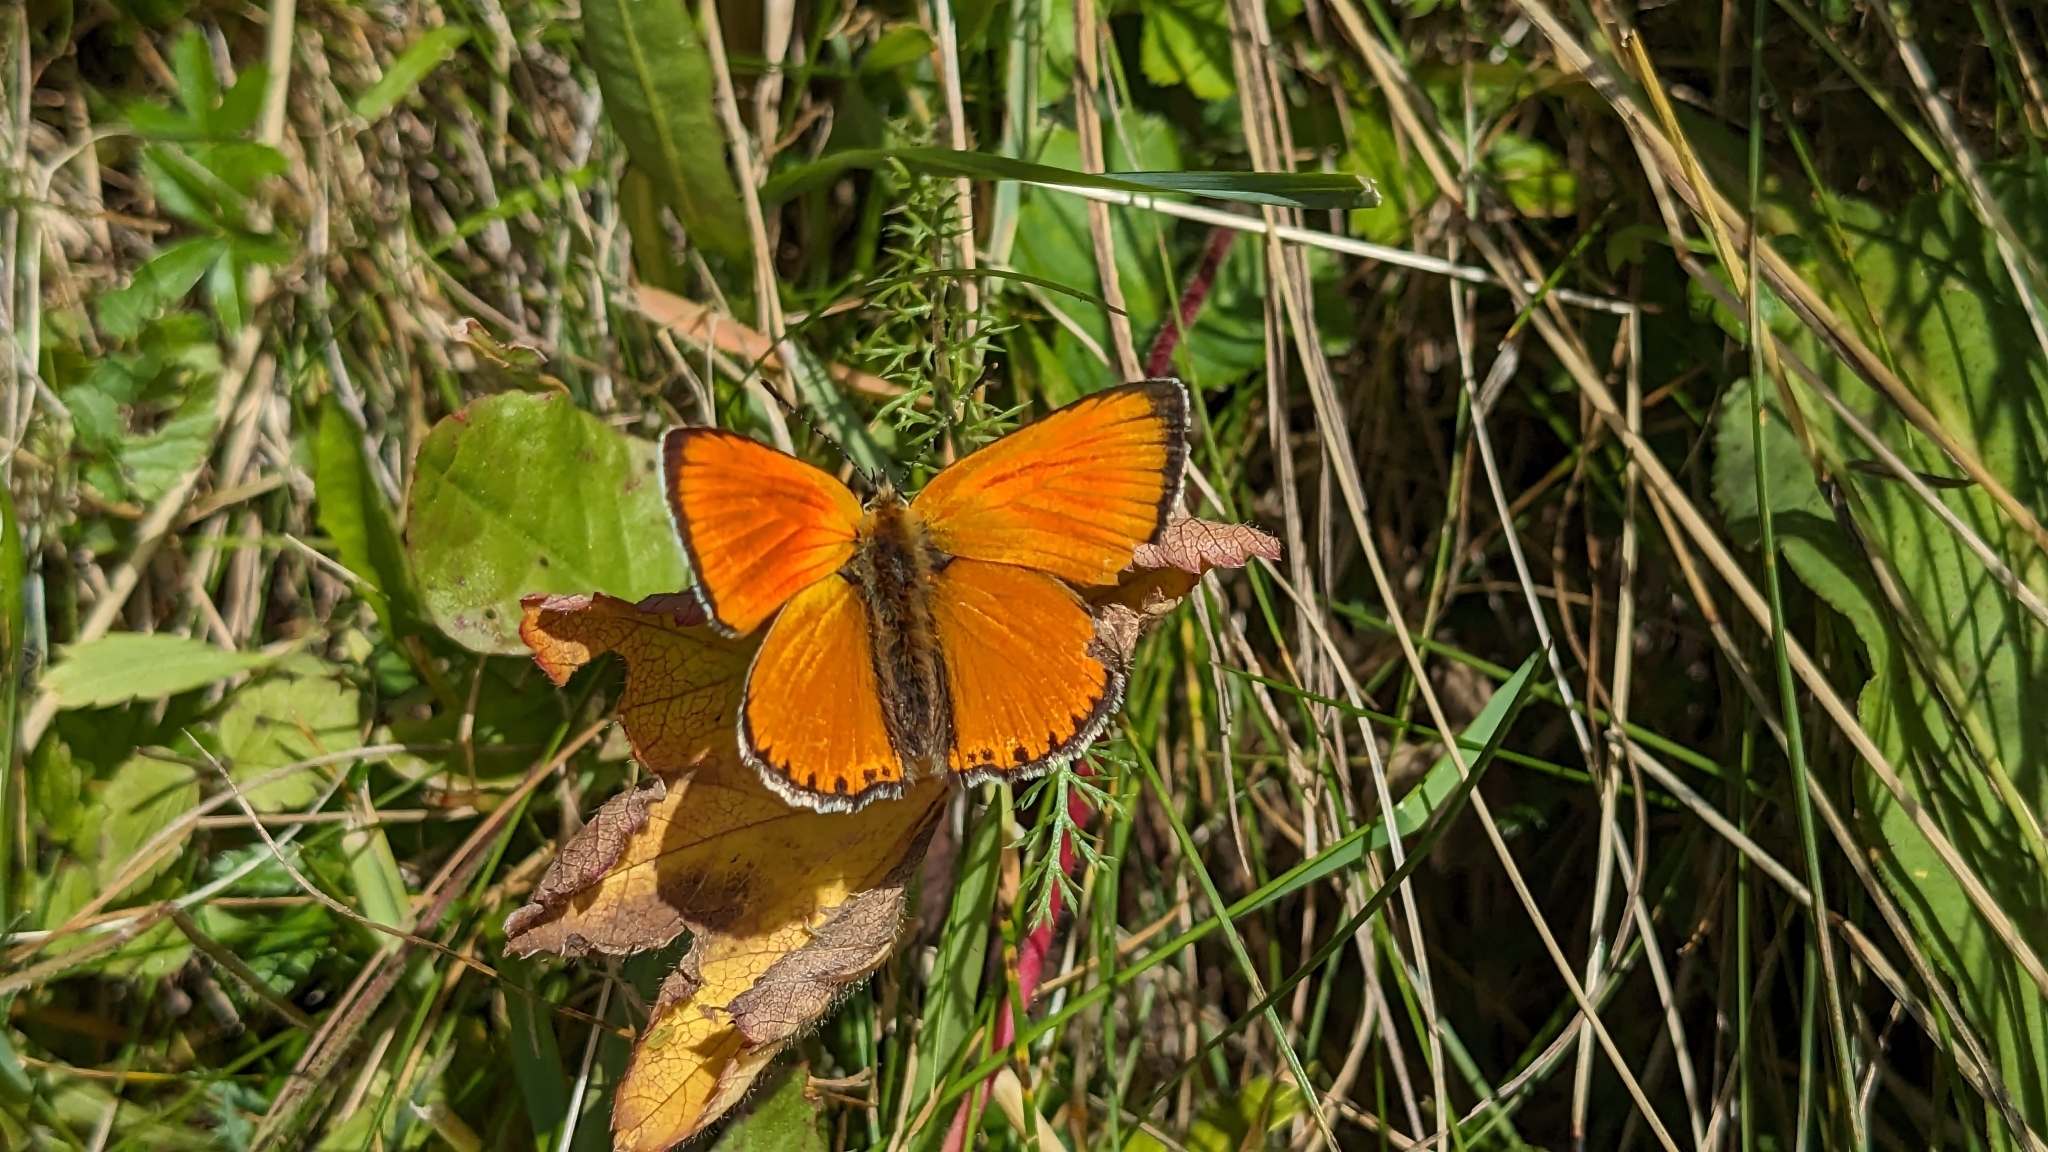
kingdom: Animalia
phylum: Arthropoda
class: Insecta
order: Lepidoptera
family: Lycaenidae
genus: Lycaena
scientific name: Lycaena virgaureae
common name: Scarce copper
